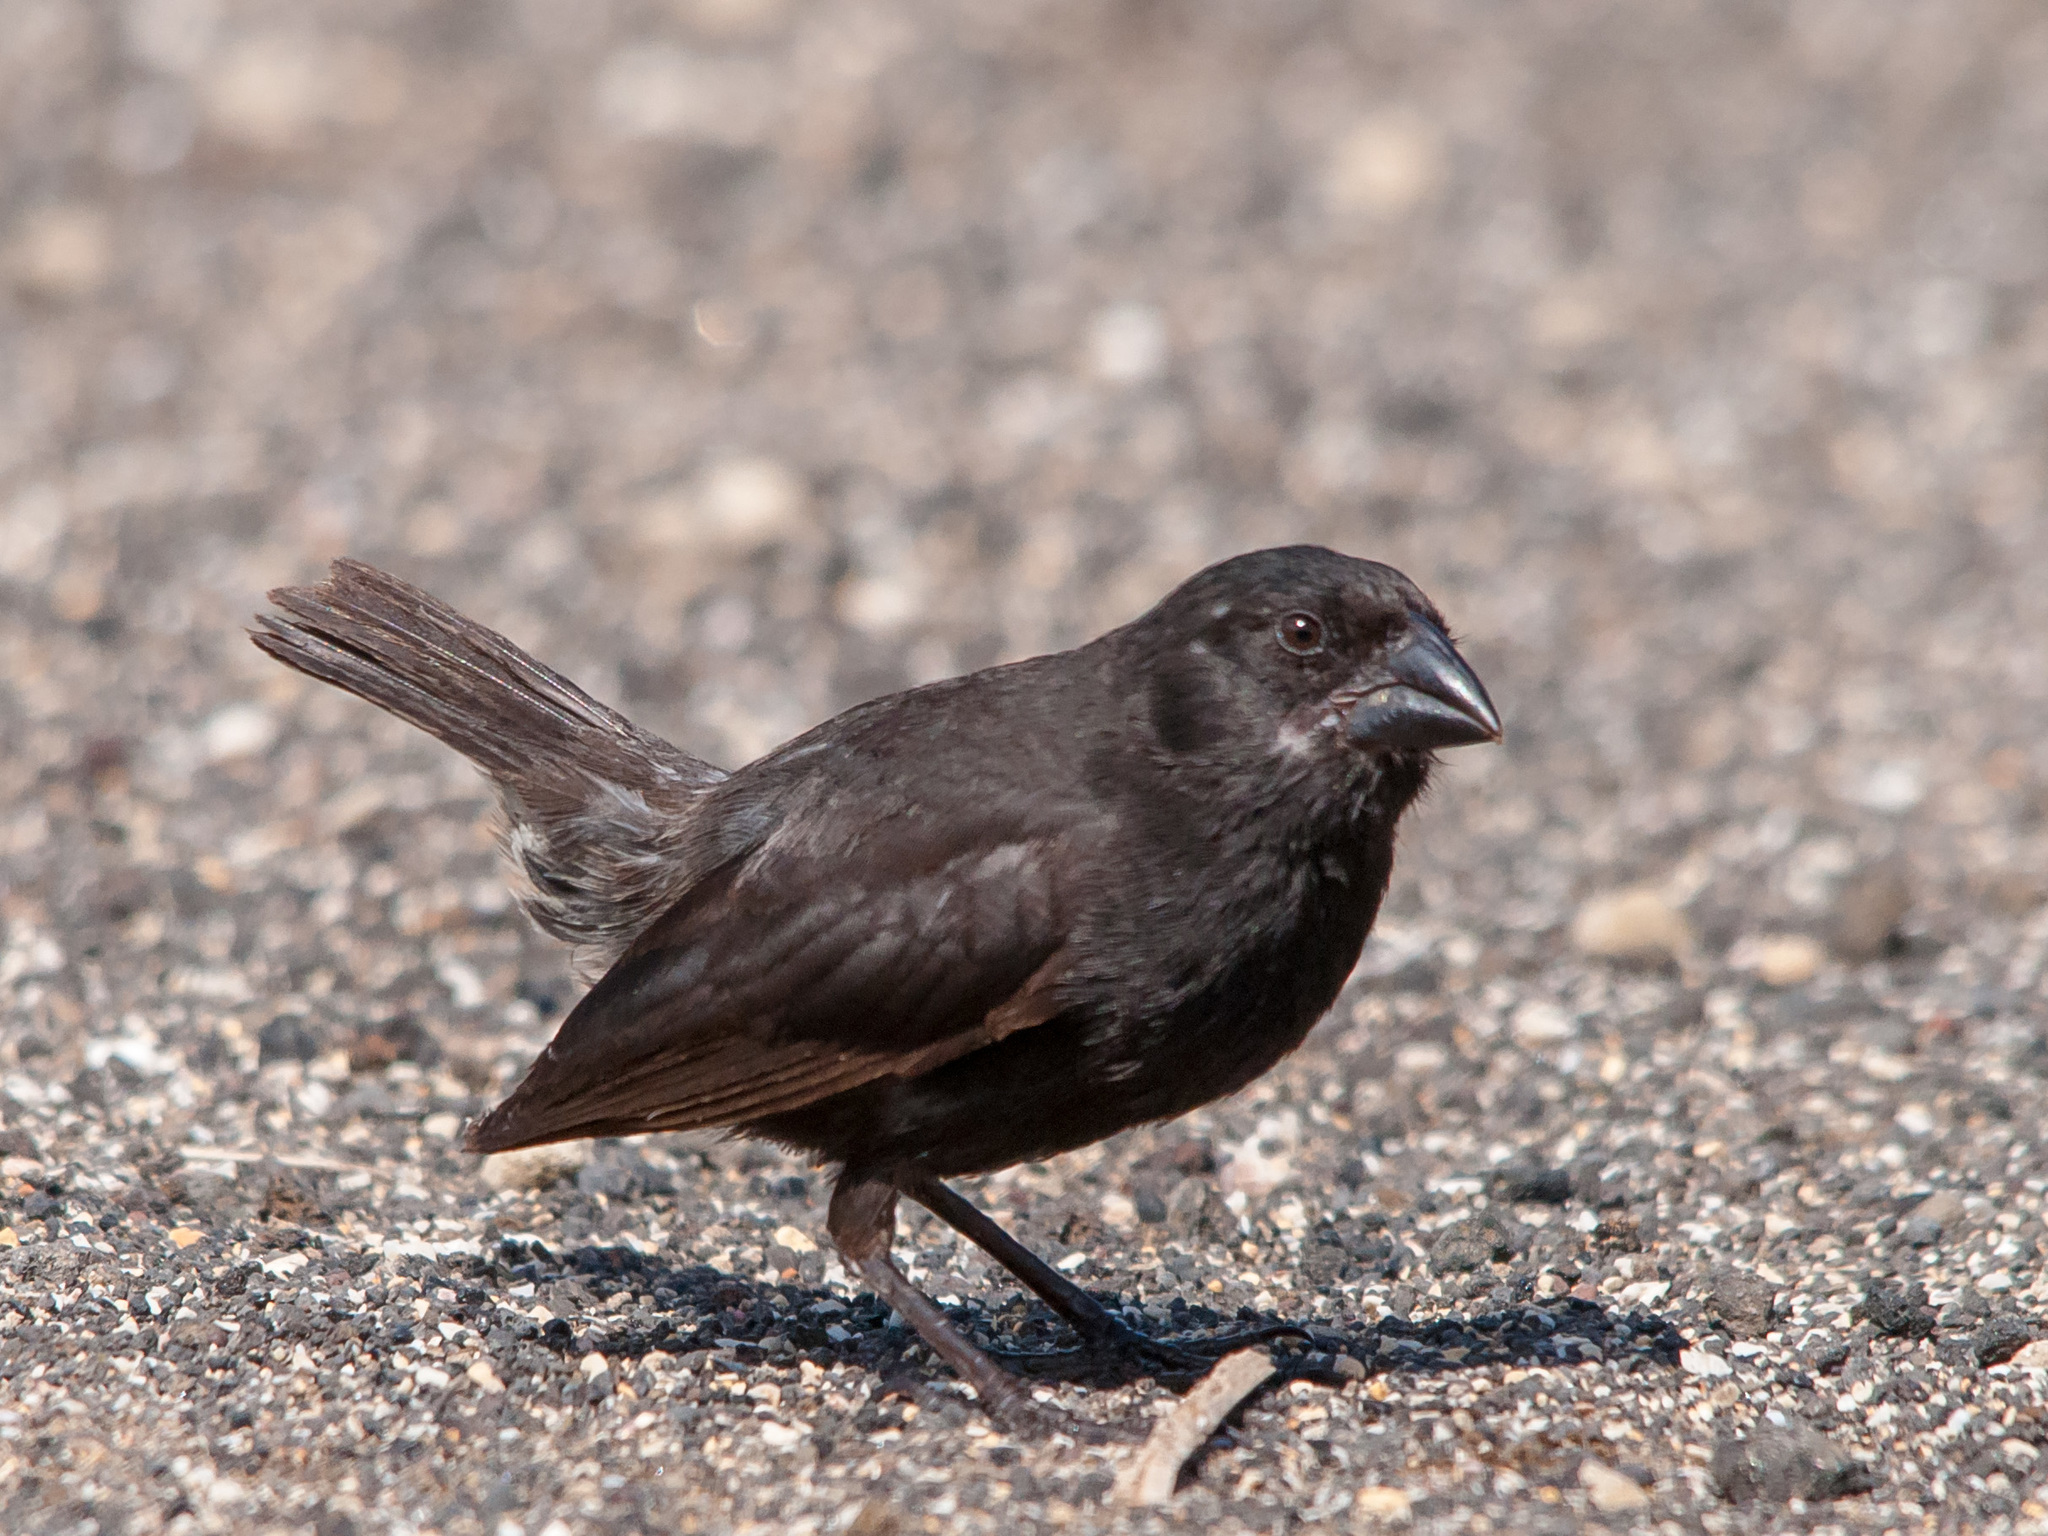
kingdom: Animalia
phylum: Chordata
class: Aves
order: Passeriformes
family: Thraupidae
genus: Geospiza
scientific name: Geospiza fortis
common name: Medium ground finch
